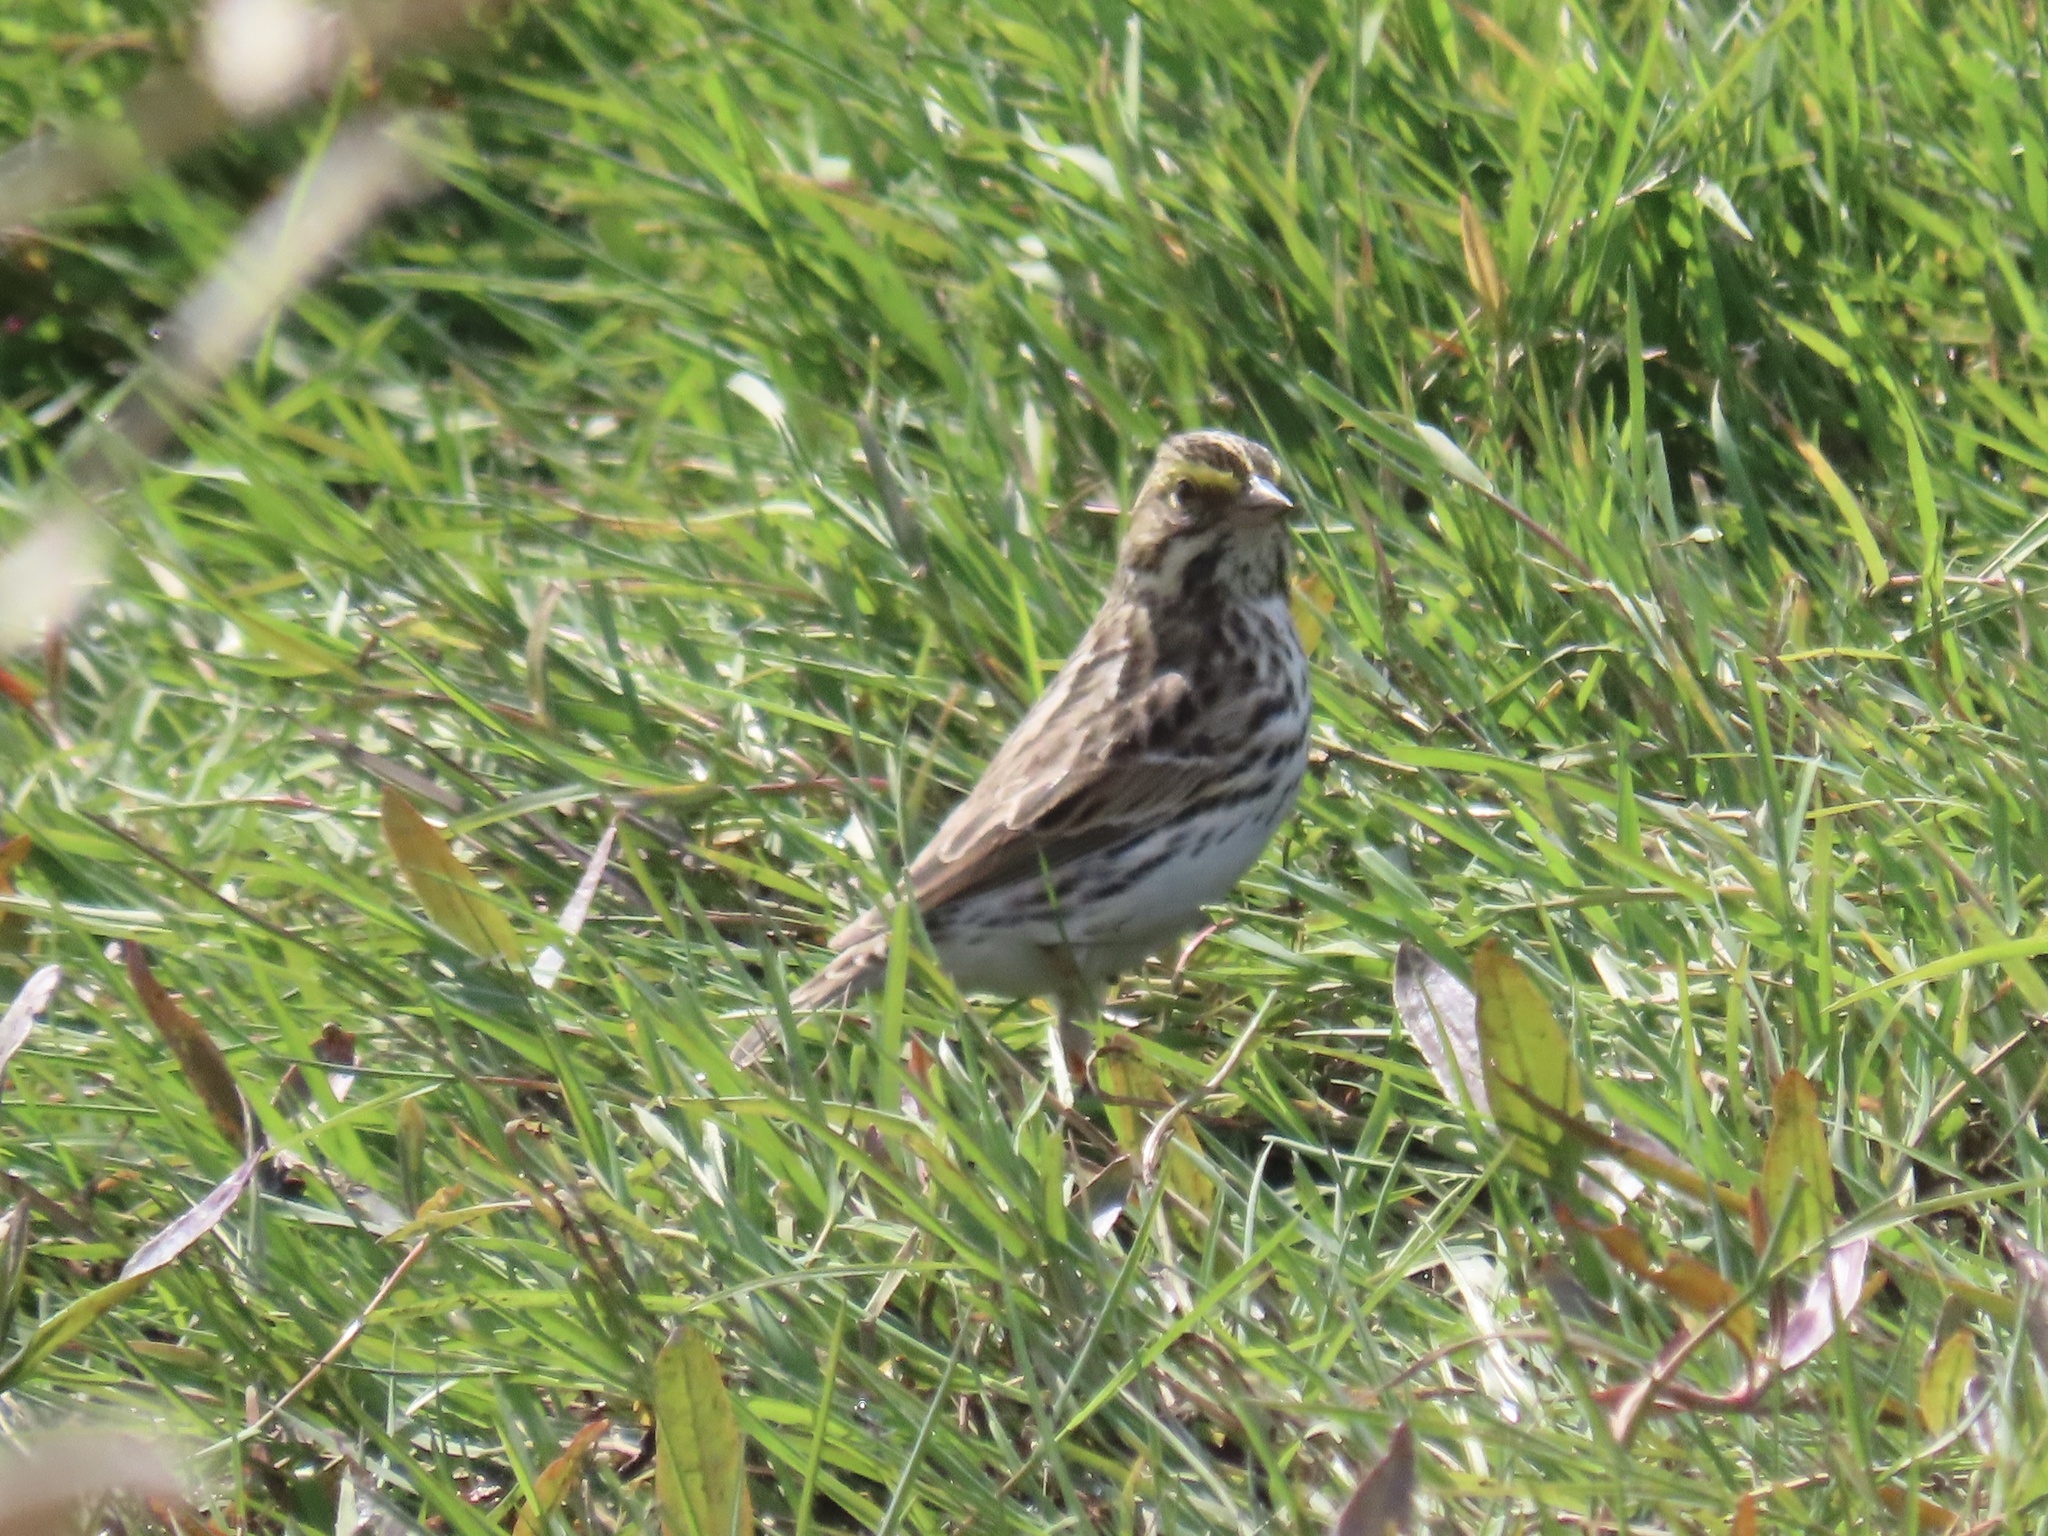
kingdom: Animalia
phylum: Chordata
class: Aves
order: Passeriformes
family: Passerellidae
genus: Passerculus
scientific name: Passerculus sandwichensis
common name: Savannah sparrow
